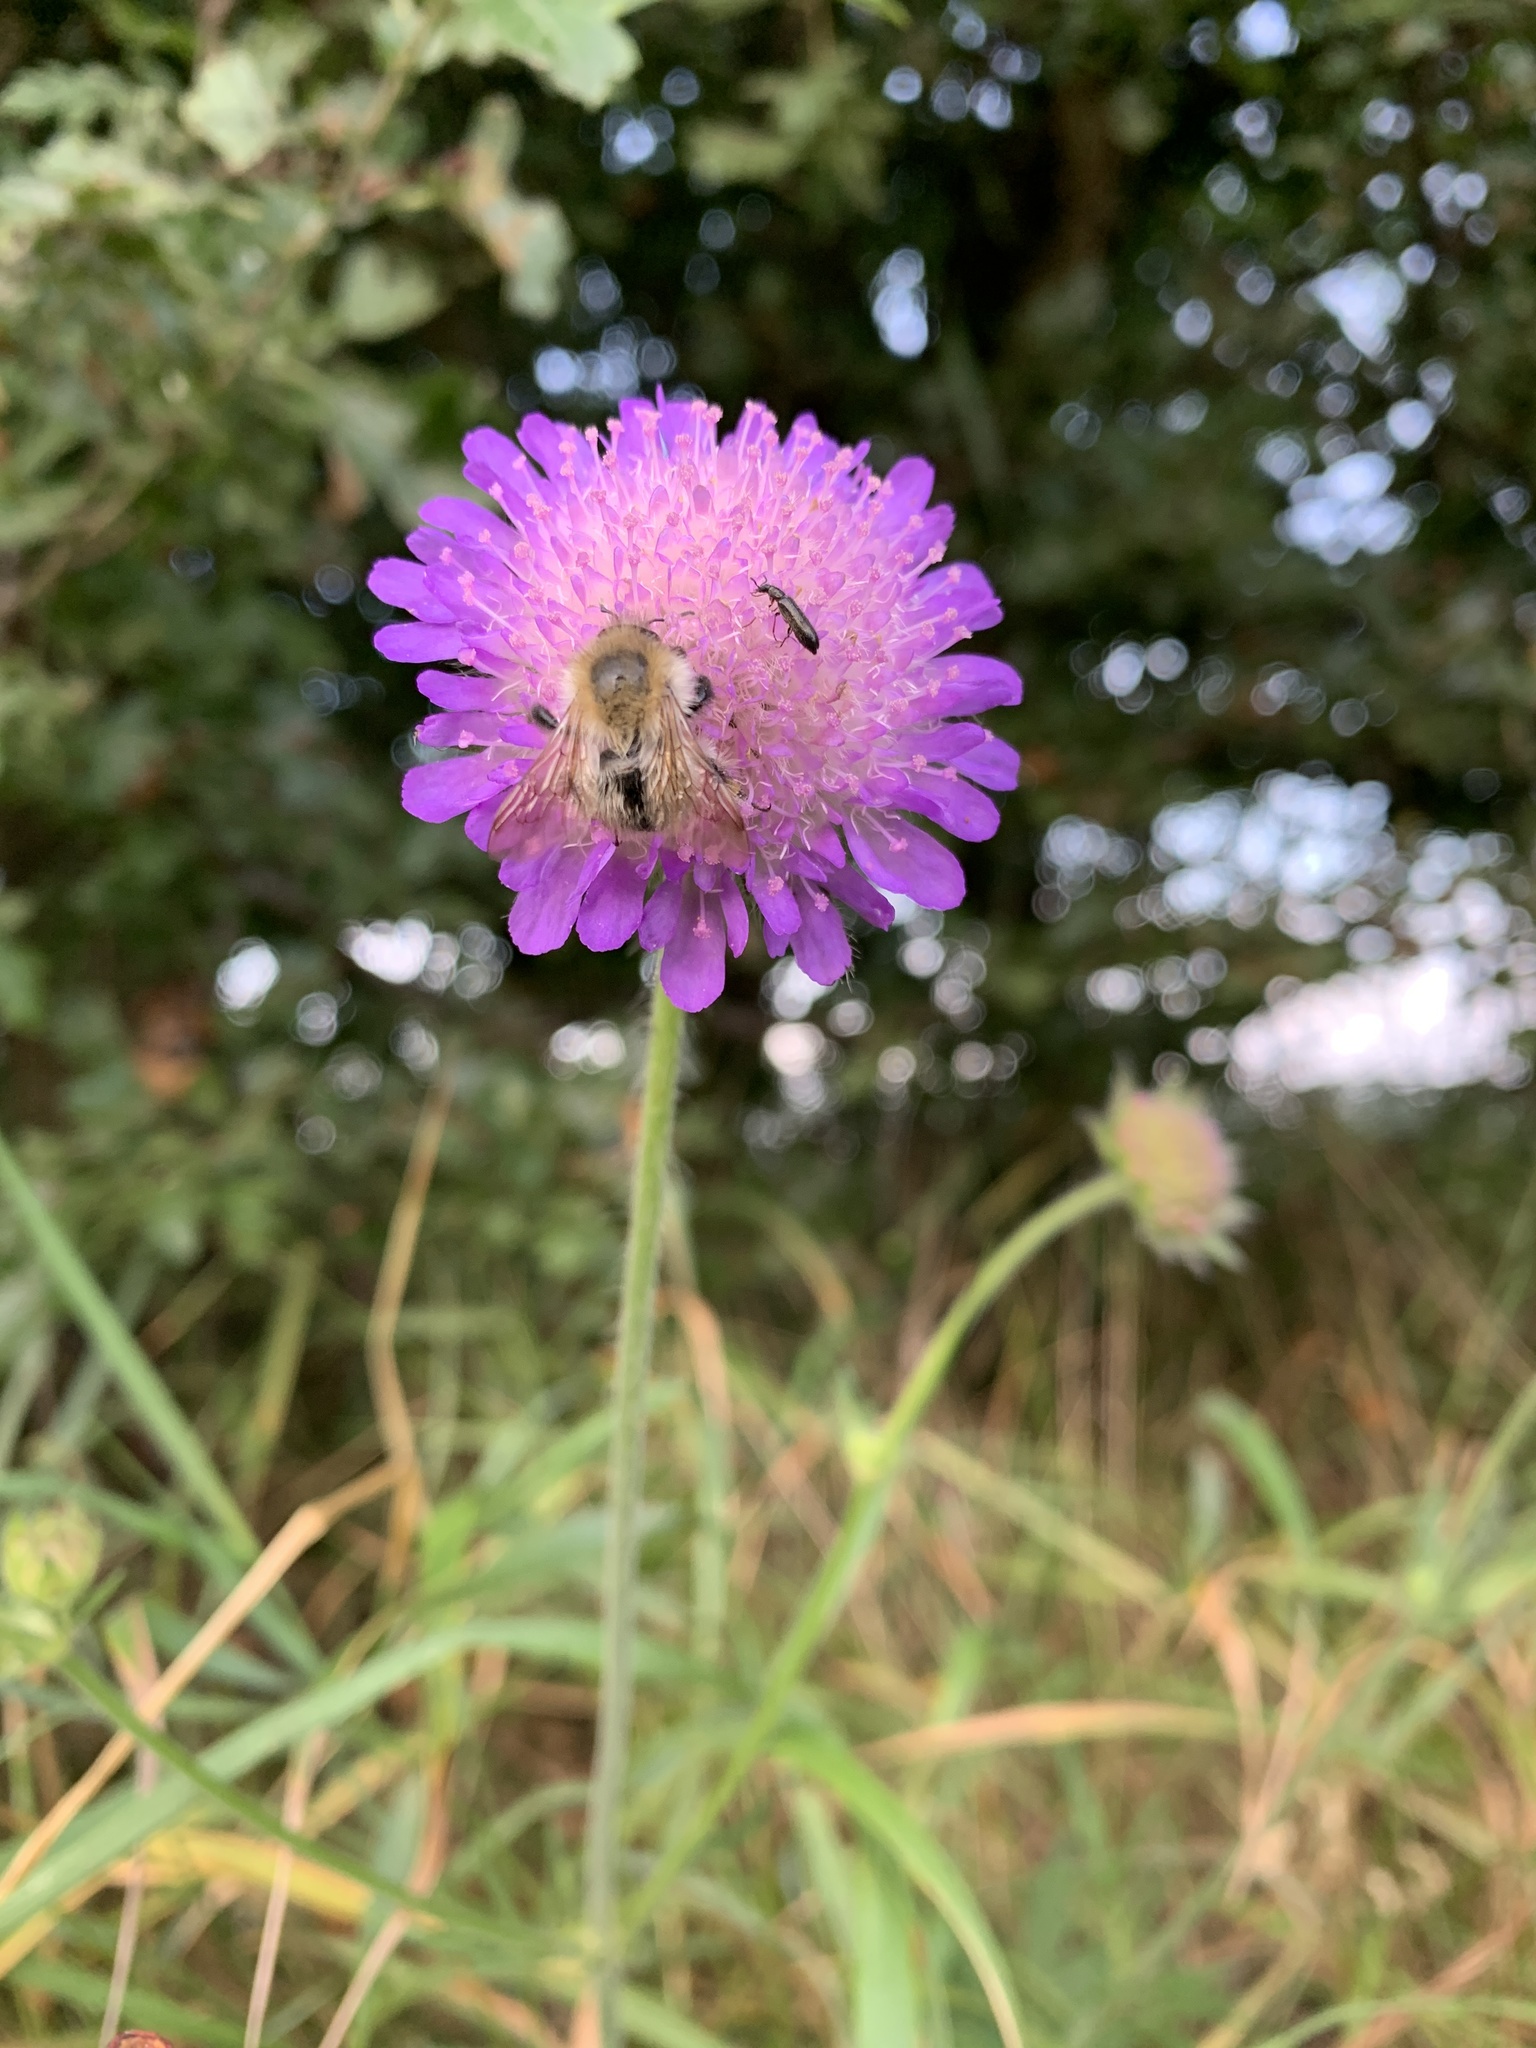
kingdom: Animalia
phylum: Arthropoda
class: Insecta
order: Hymenoptera
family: Apidae
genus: Bombus
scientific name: Bombus pascuorum
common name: Common carder bee
